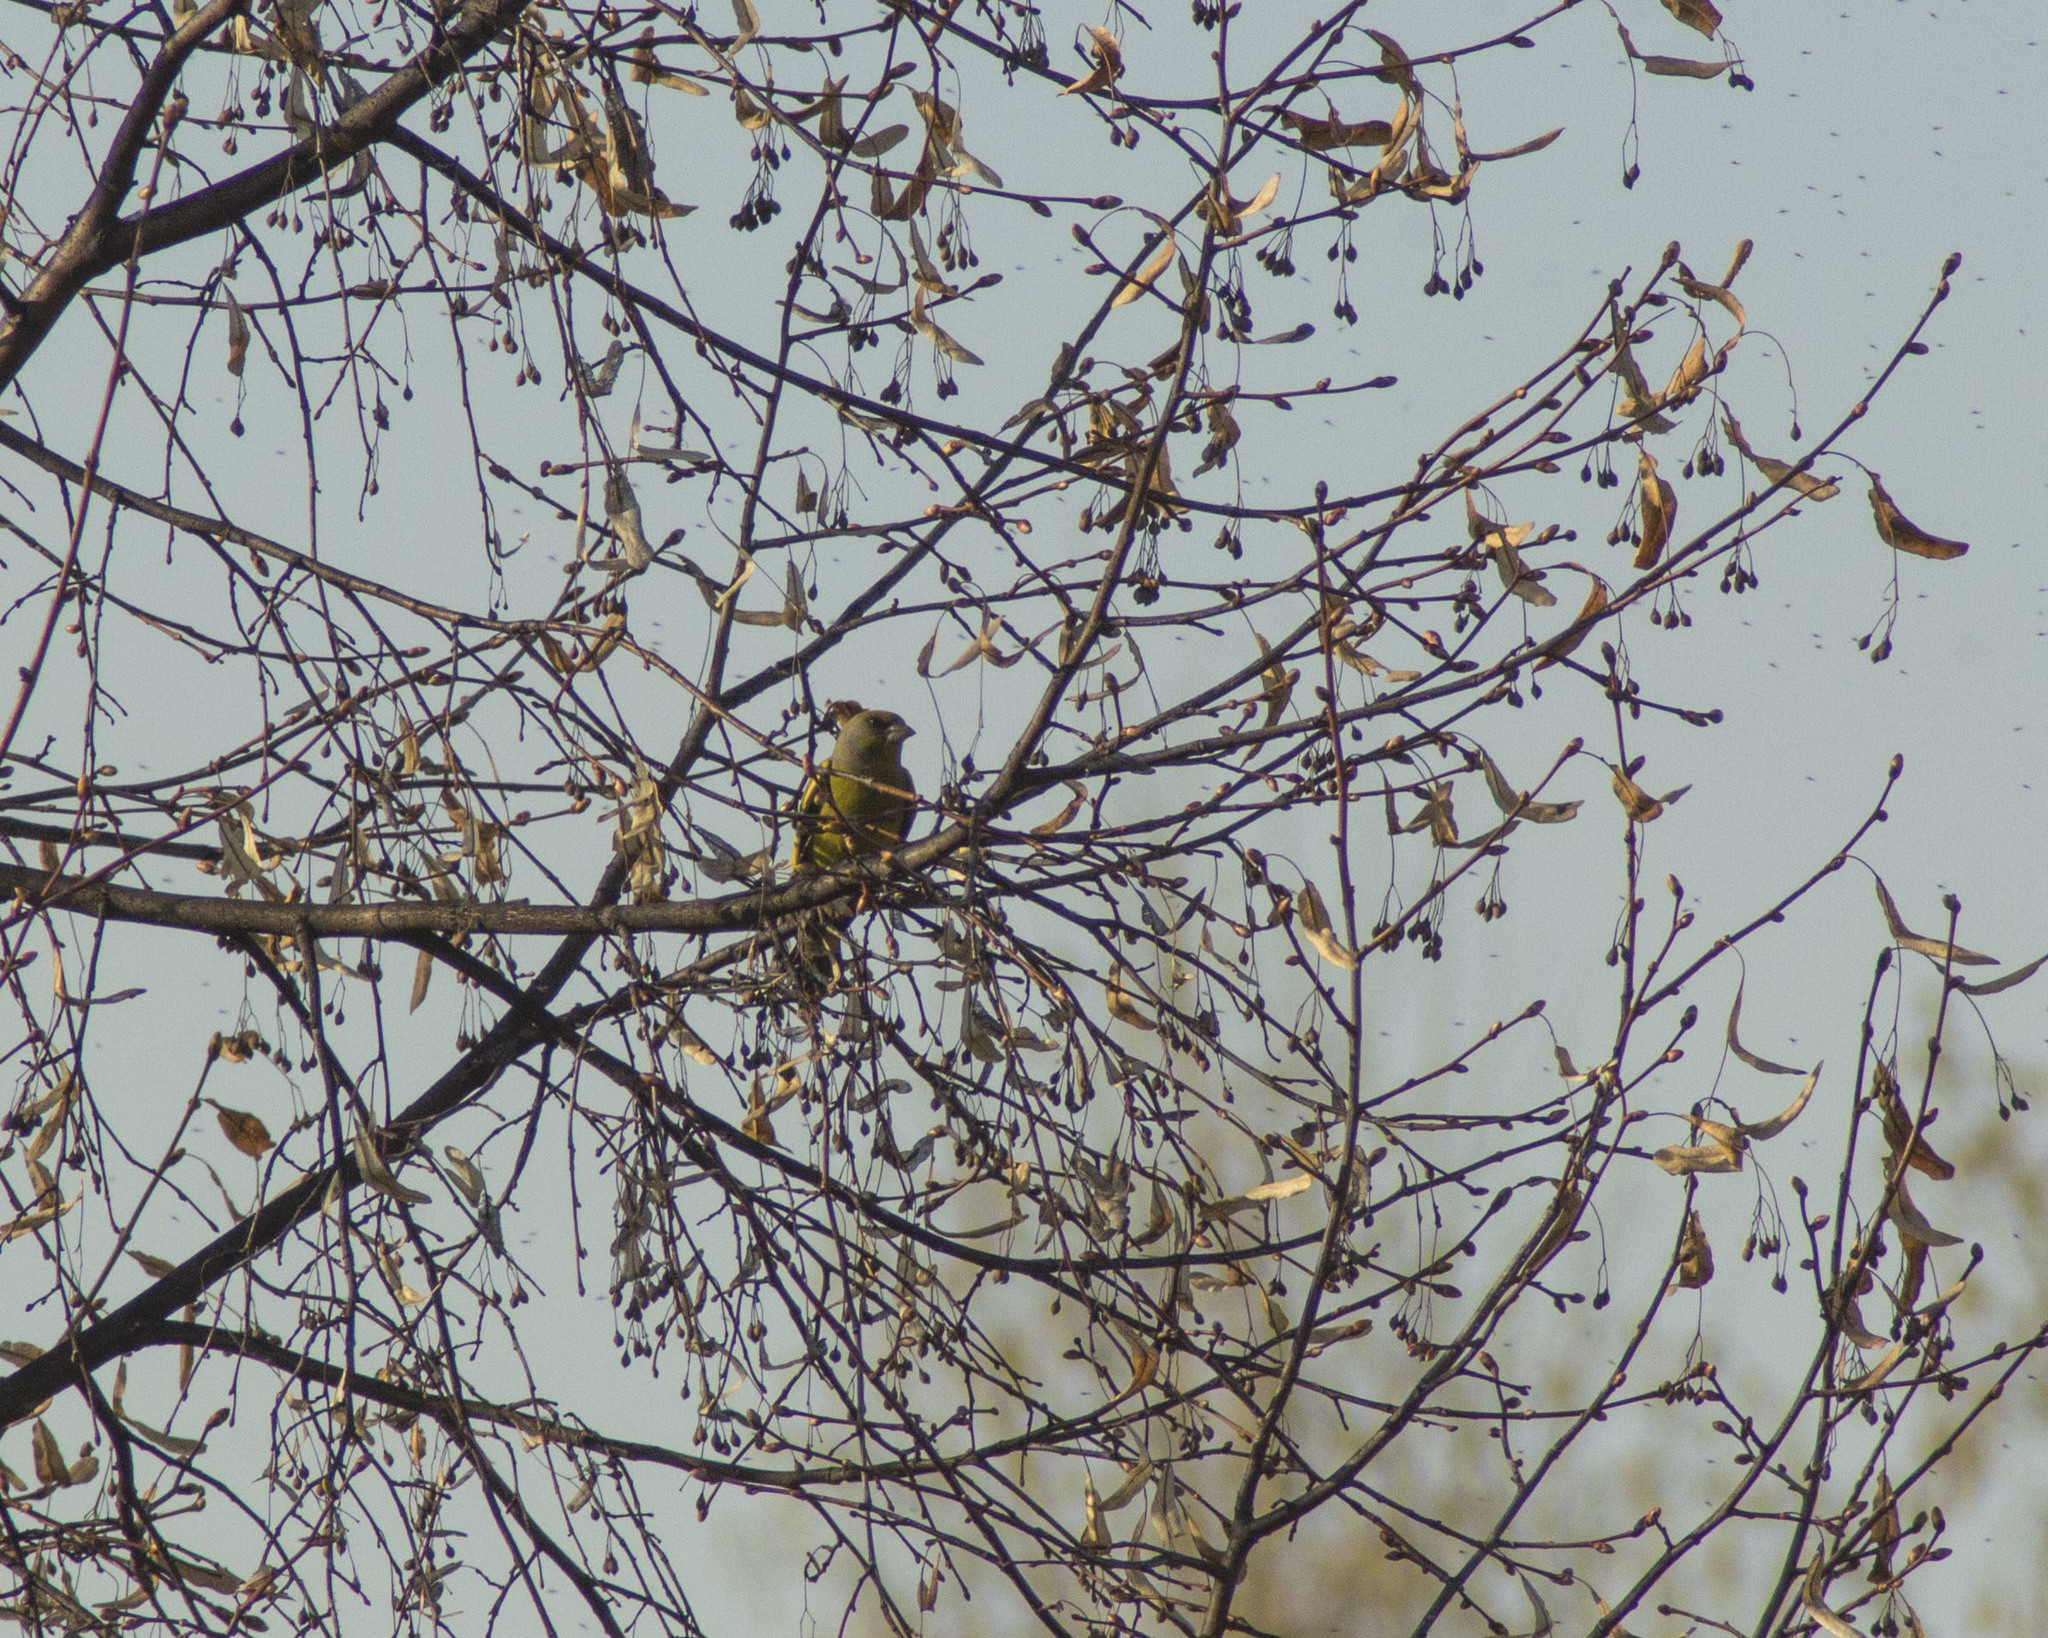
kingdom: Plantae
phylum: Tracheophyta
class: Liliopsida
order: Poales
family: Poaceae
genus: Chloris
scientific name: Chloris chloris
